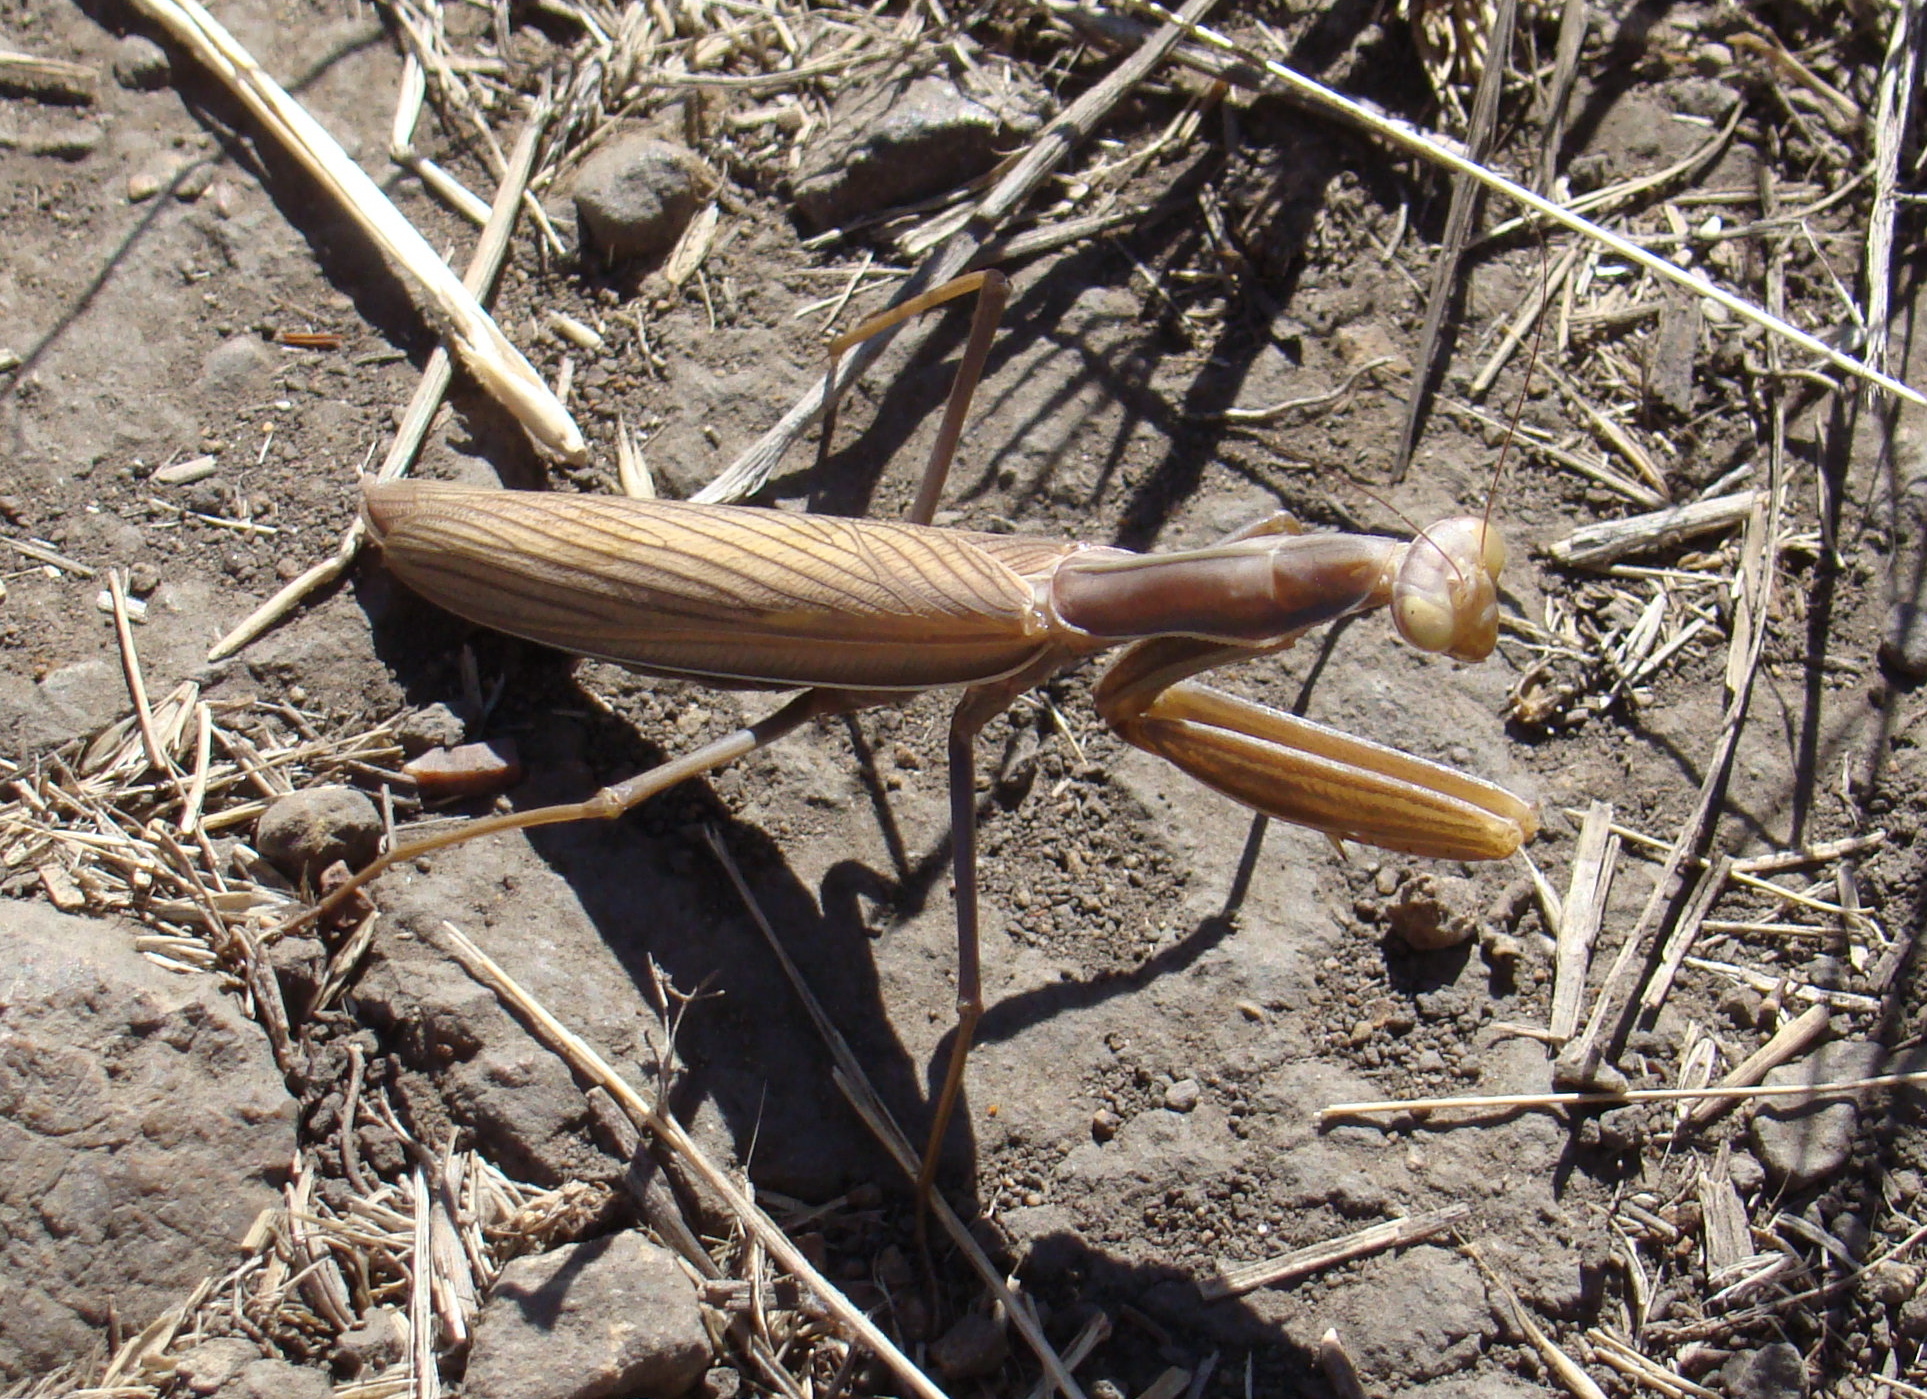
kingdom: Animalia
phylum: Arthropoda
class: Insecta
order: Mantodea
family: Mantidae
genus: Mantis
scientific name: Mantis religiosa
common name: Praying mantis
